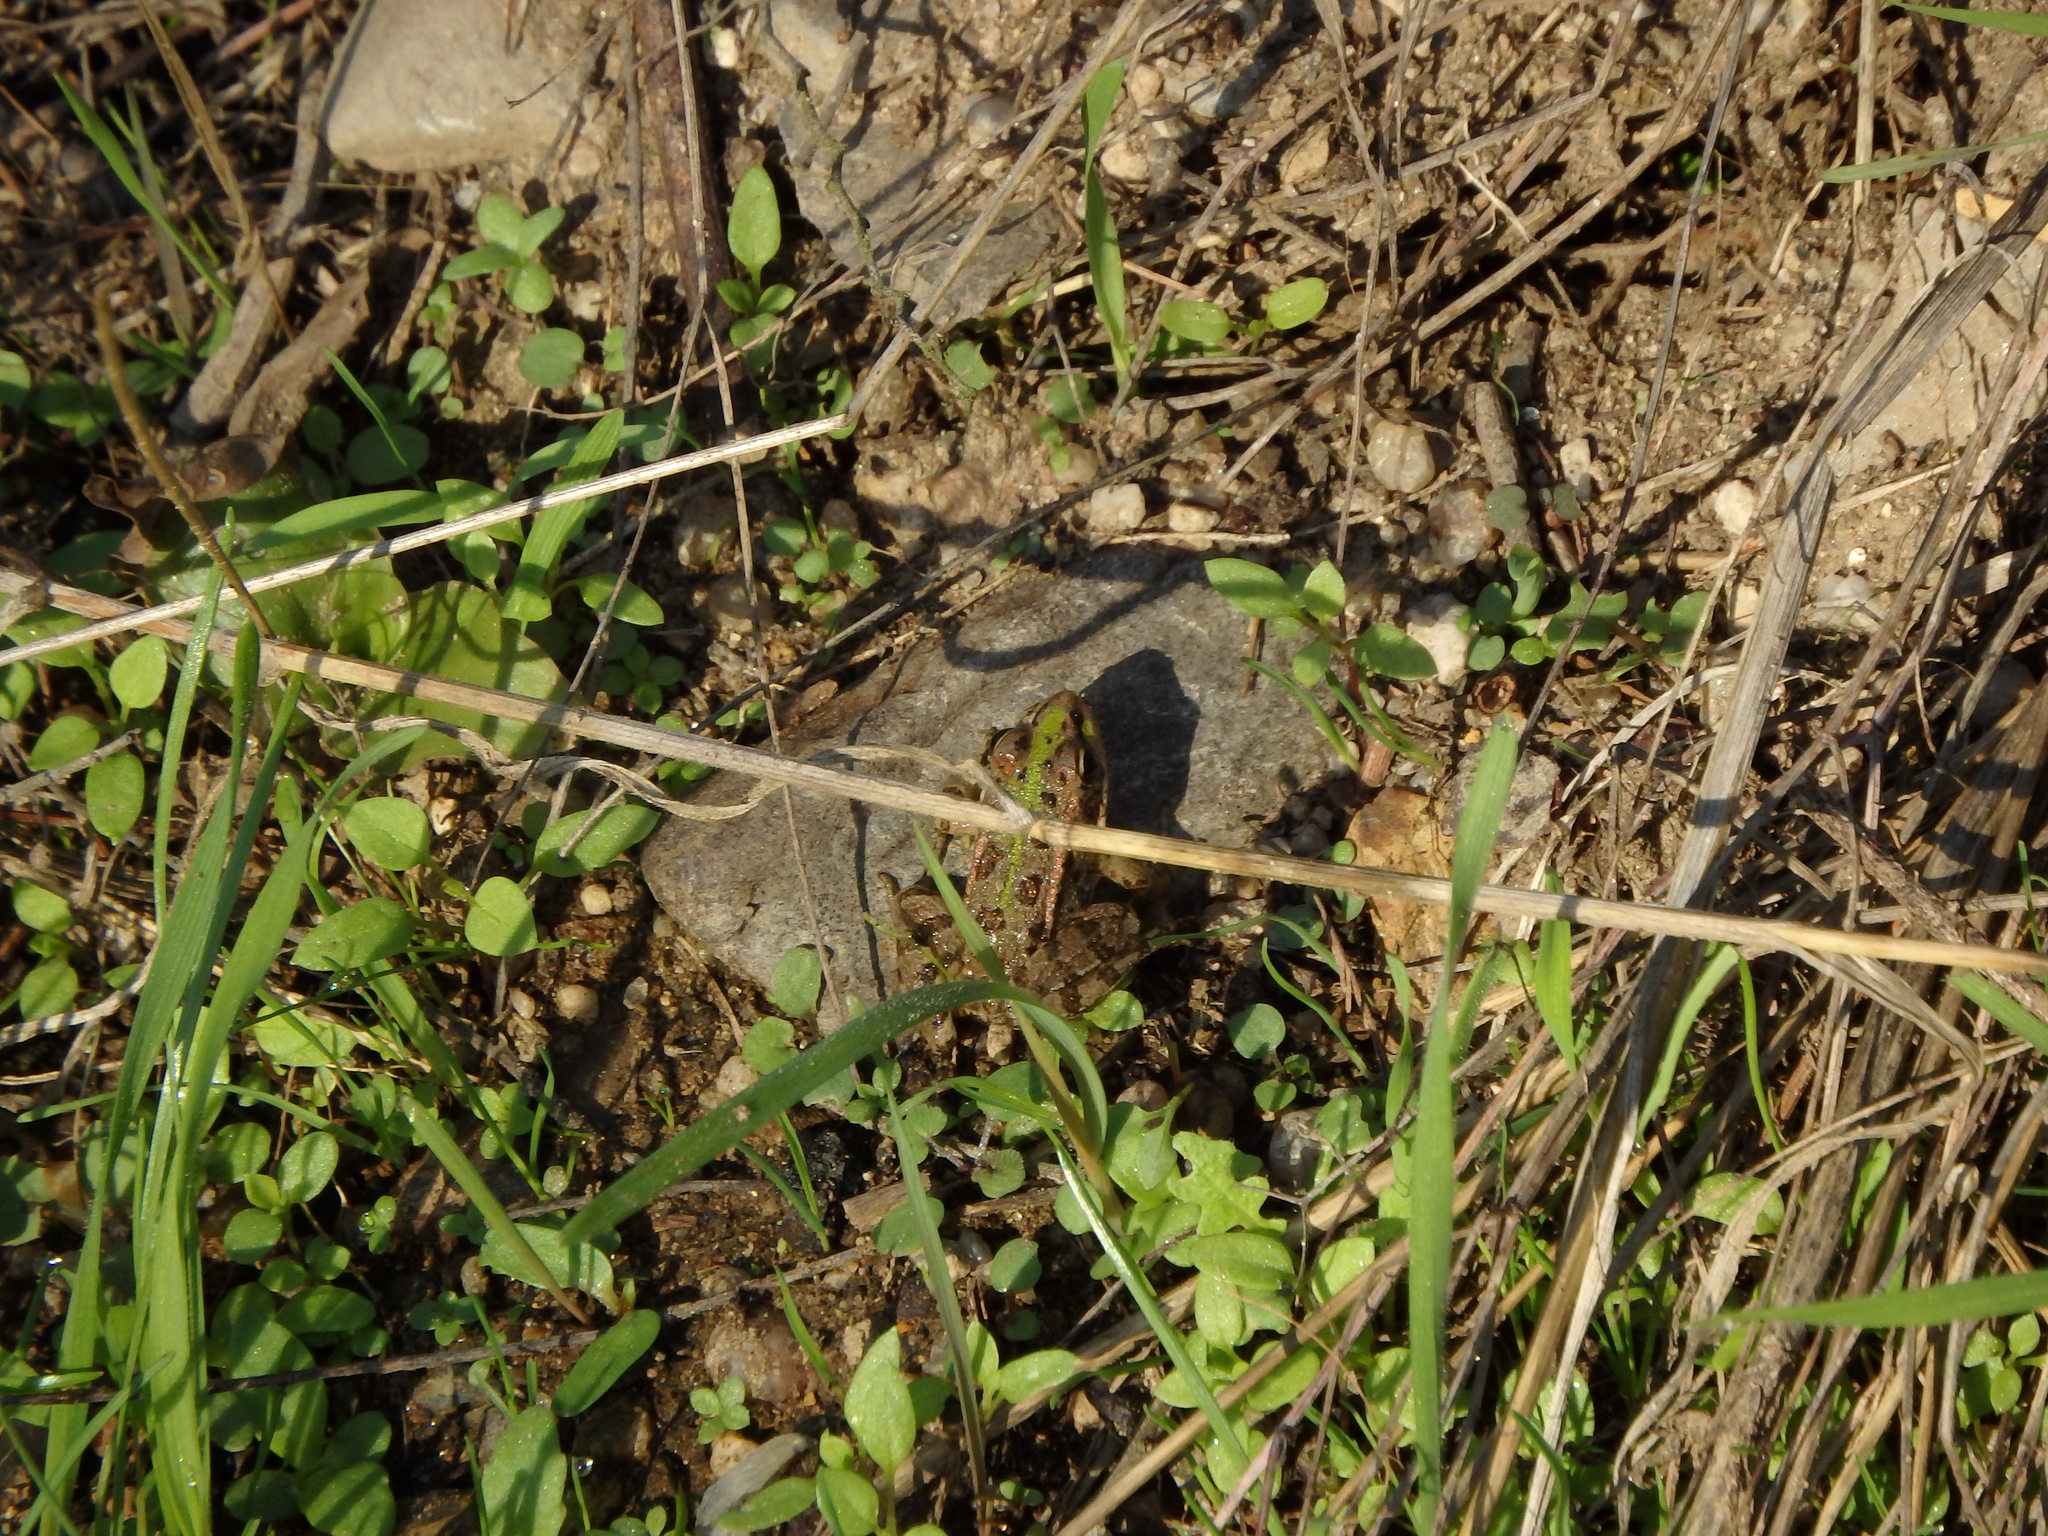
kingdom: Animalia
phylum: Chordata
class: Amphibia
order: Anura
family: Ranidae
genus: Pelophylax
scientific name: Pelophylax perezi
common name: Perez's frog
